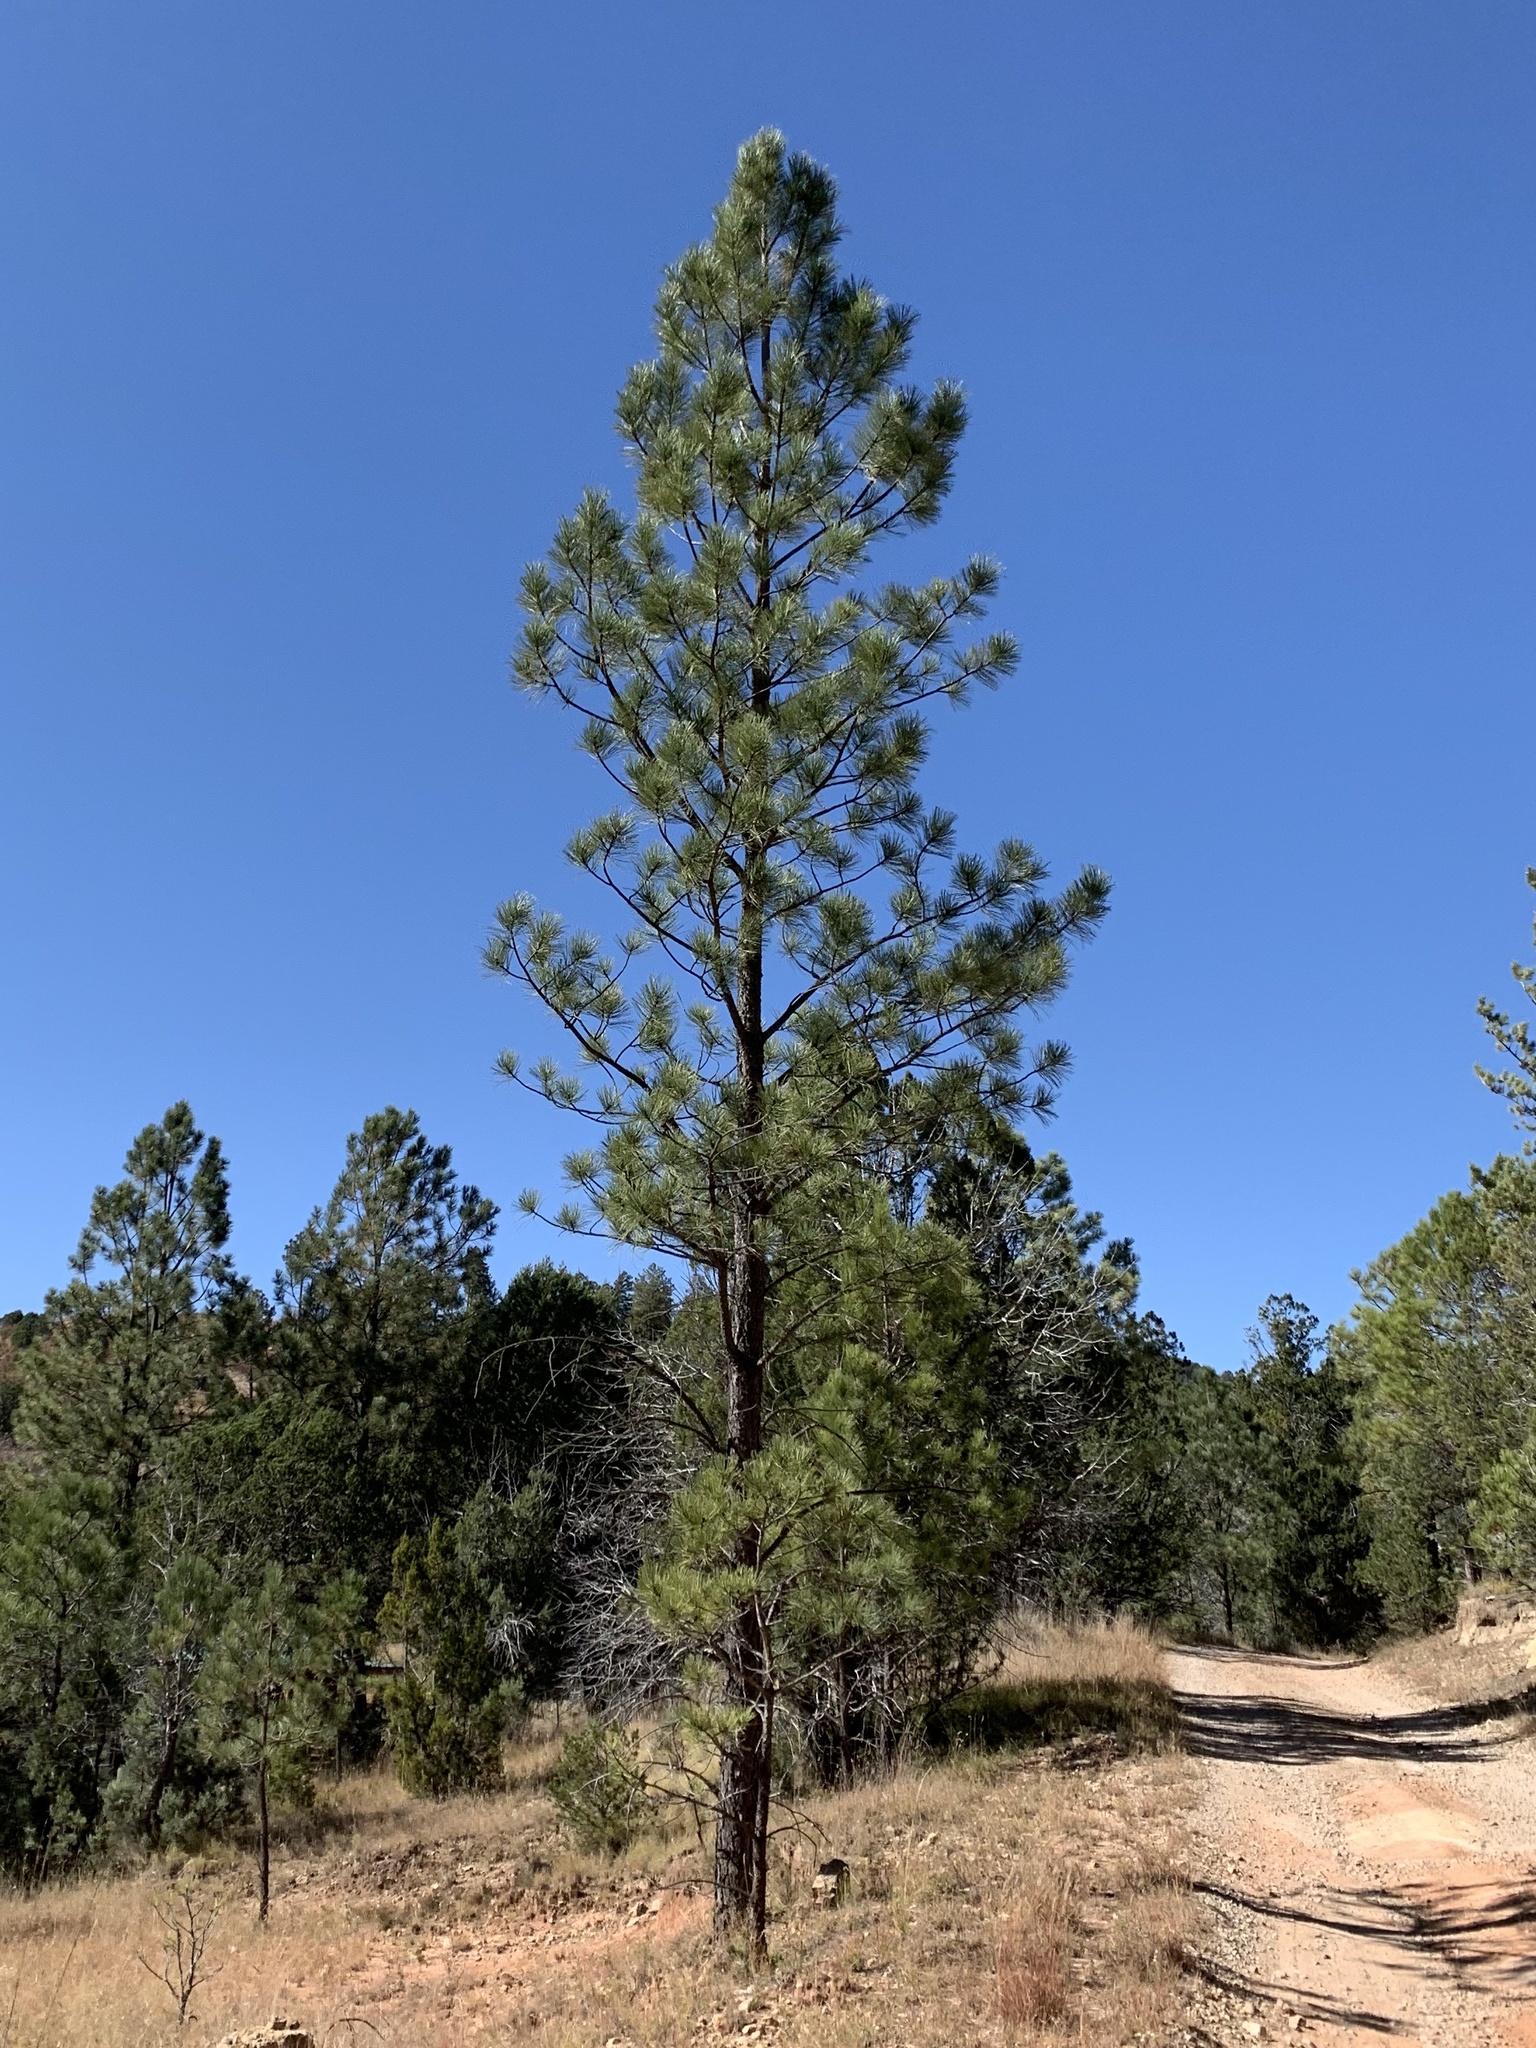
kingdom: Plantae
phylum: Tracheophyta
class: Pinopsida
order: Pinales
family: Pinaceae
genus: Pinus
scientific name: Pinus ponderosa
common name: Western yellow-pine
